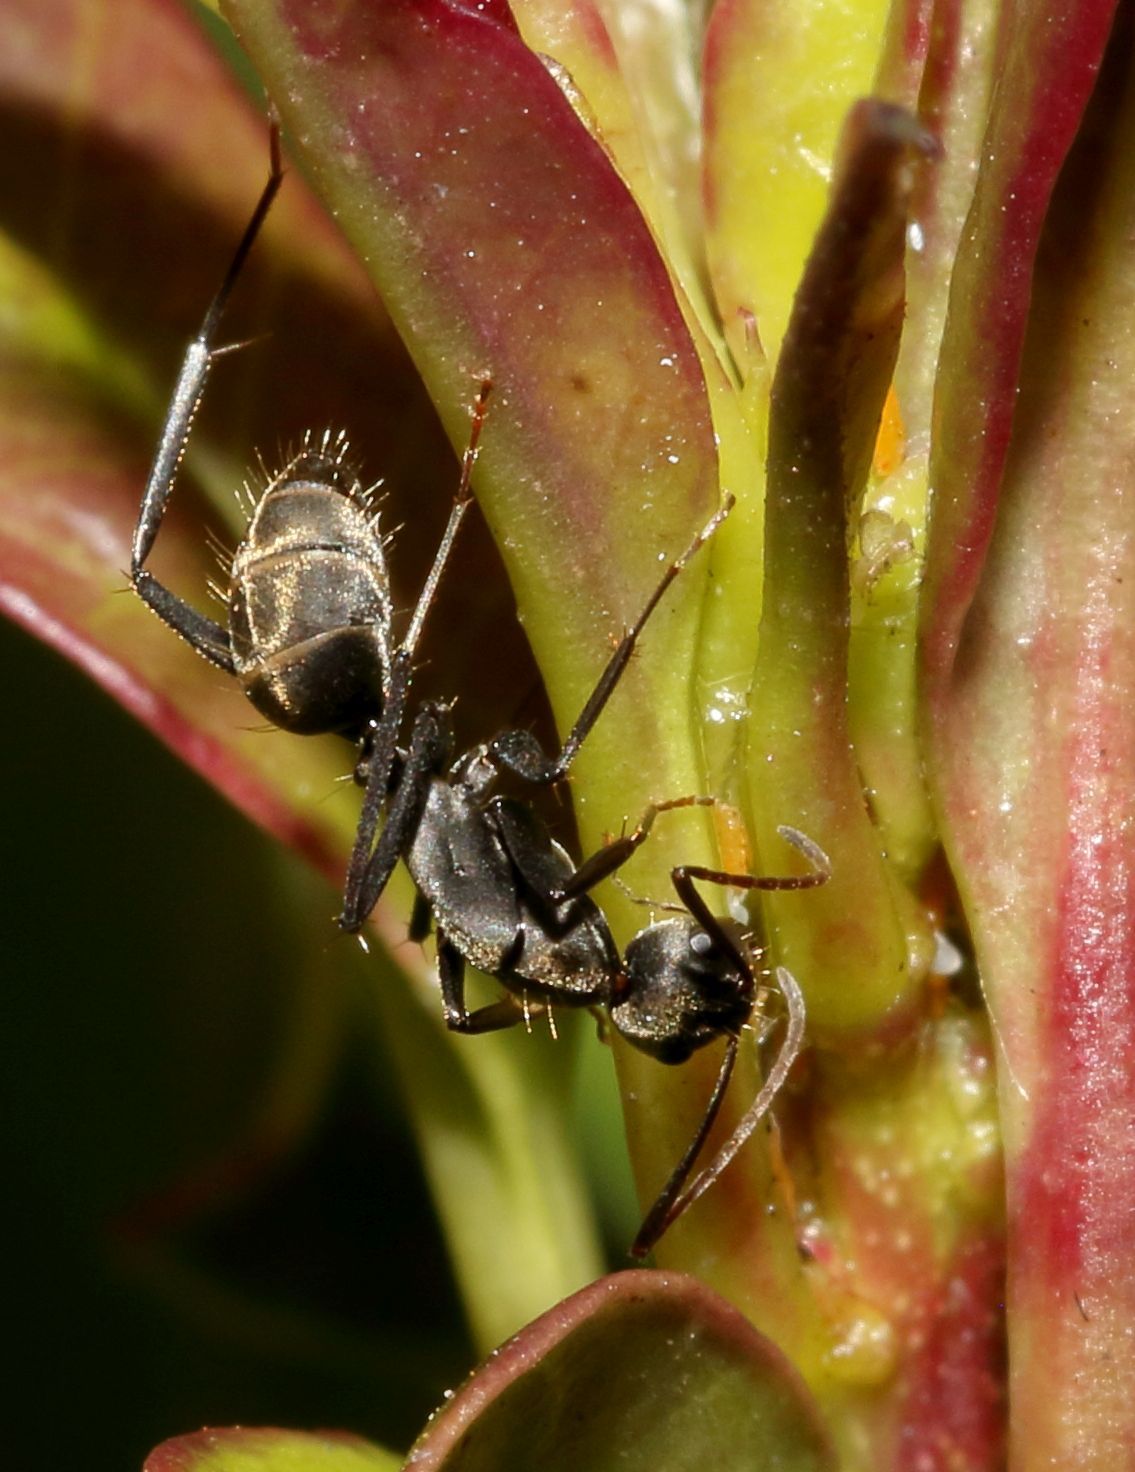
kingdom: Animalia
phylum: Arthropoda
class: Insecta
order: Hymenoptera
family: Formicidae
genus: Camponotus
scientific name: Camponotus cinctellus
